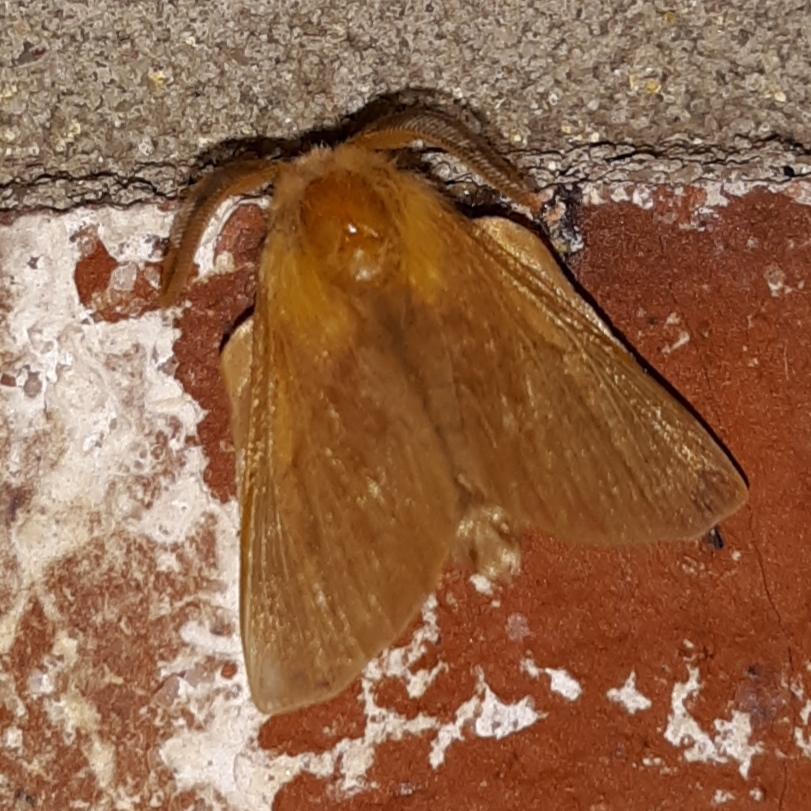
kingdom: Animalia
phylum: Arthropoda
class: Insecta
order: Lepidoptera
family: Lasiocampidae
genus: Malacosoma
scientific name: Malacosoma disstria
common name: Forest tent caterpillar
